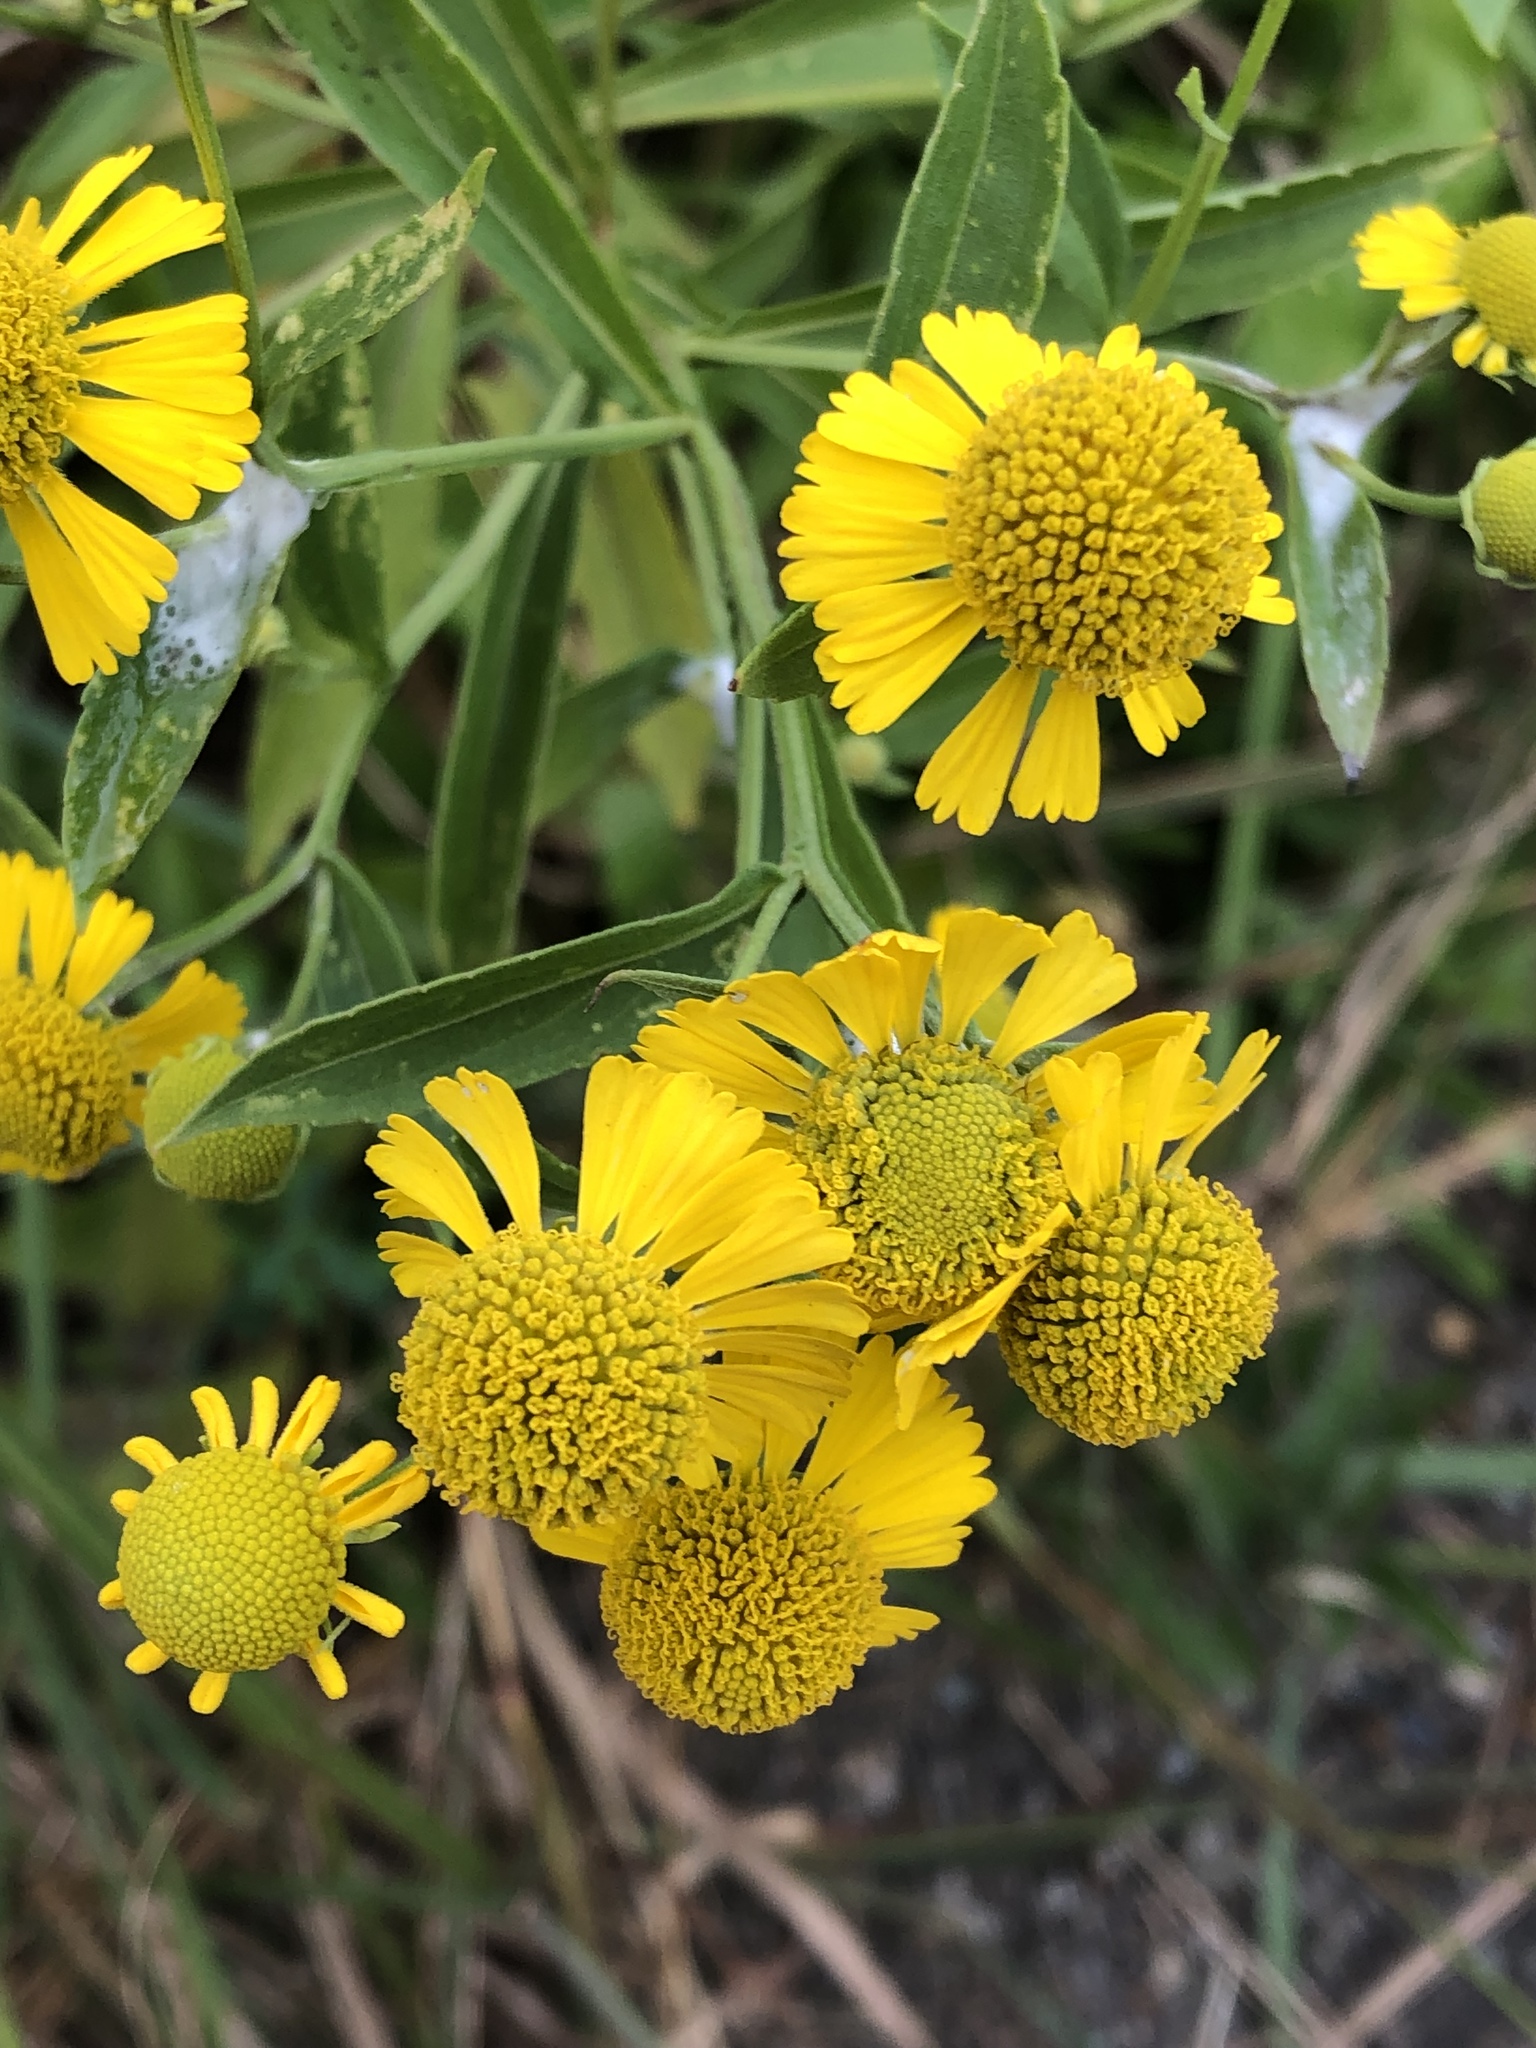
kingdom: Plantae
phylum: Tracheophyta
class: Magnoliopsida
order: Asterales
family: Asteraceae
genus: Helenium
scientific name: Helenium autumnale
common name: Sneezeweed
